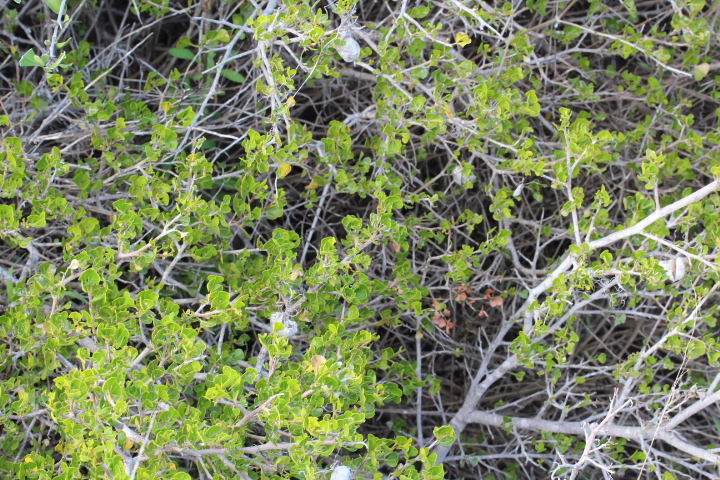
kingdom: Plantae
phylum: Tracheophyta
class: Magnoliopsida
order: Ranunculales
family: Papaveraceae
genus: Cysticapnos
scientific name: Cysticapnos vesicaria
